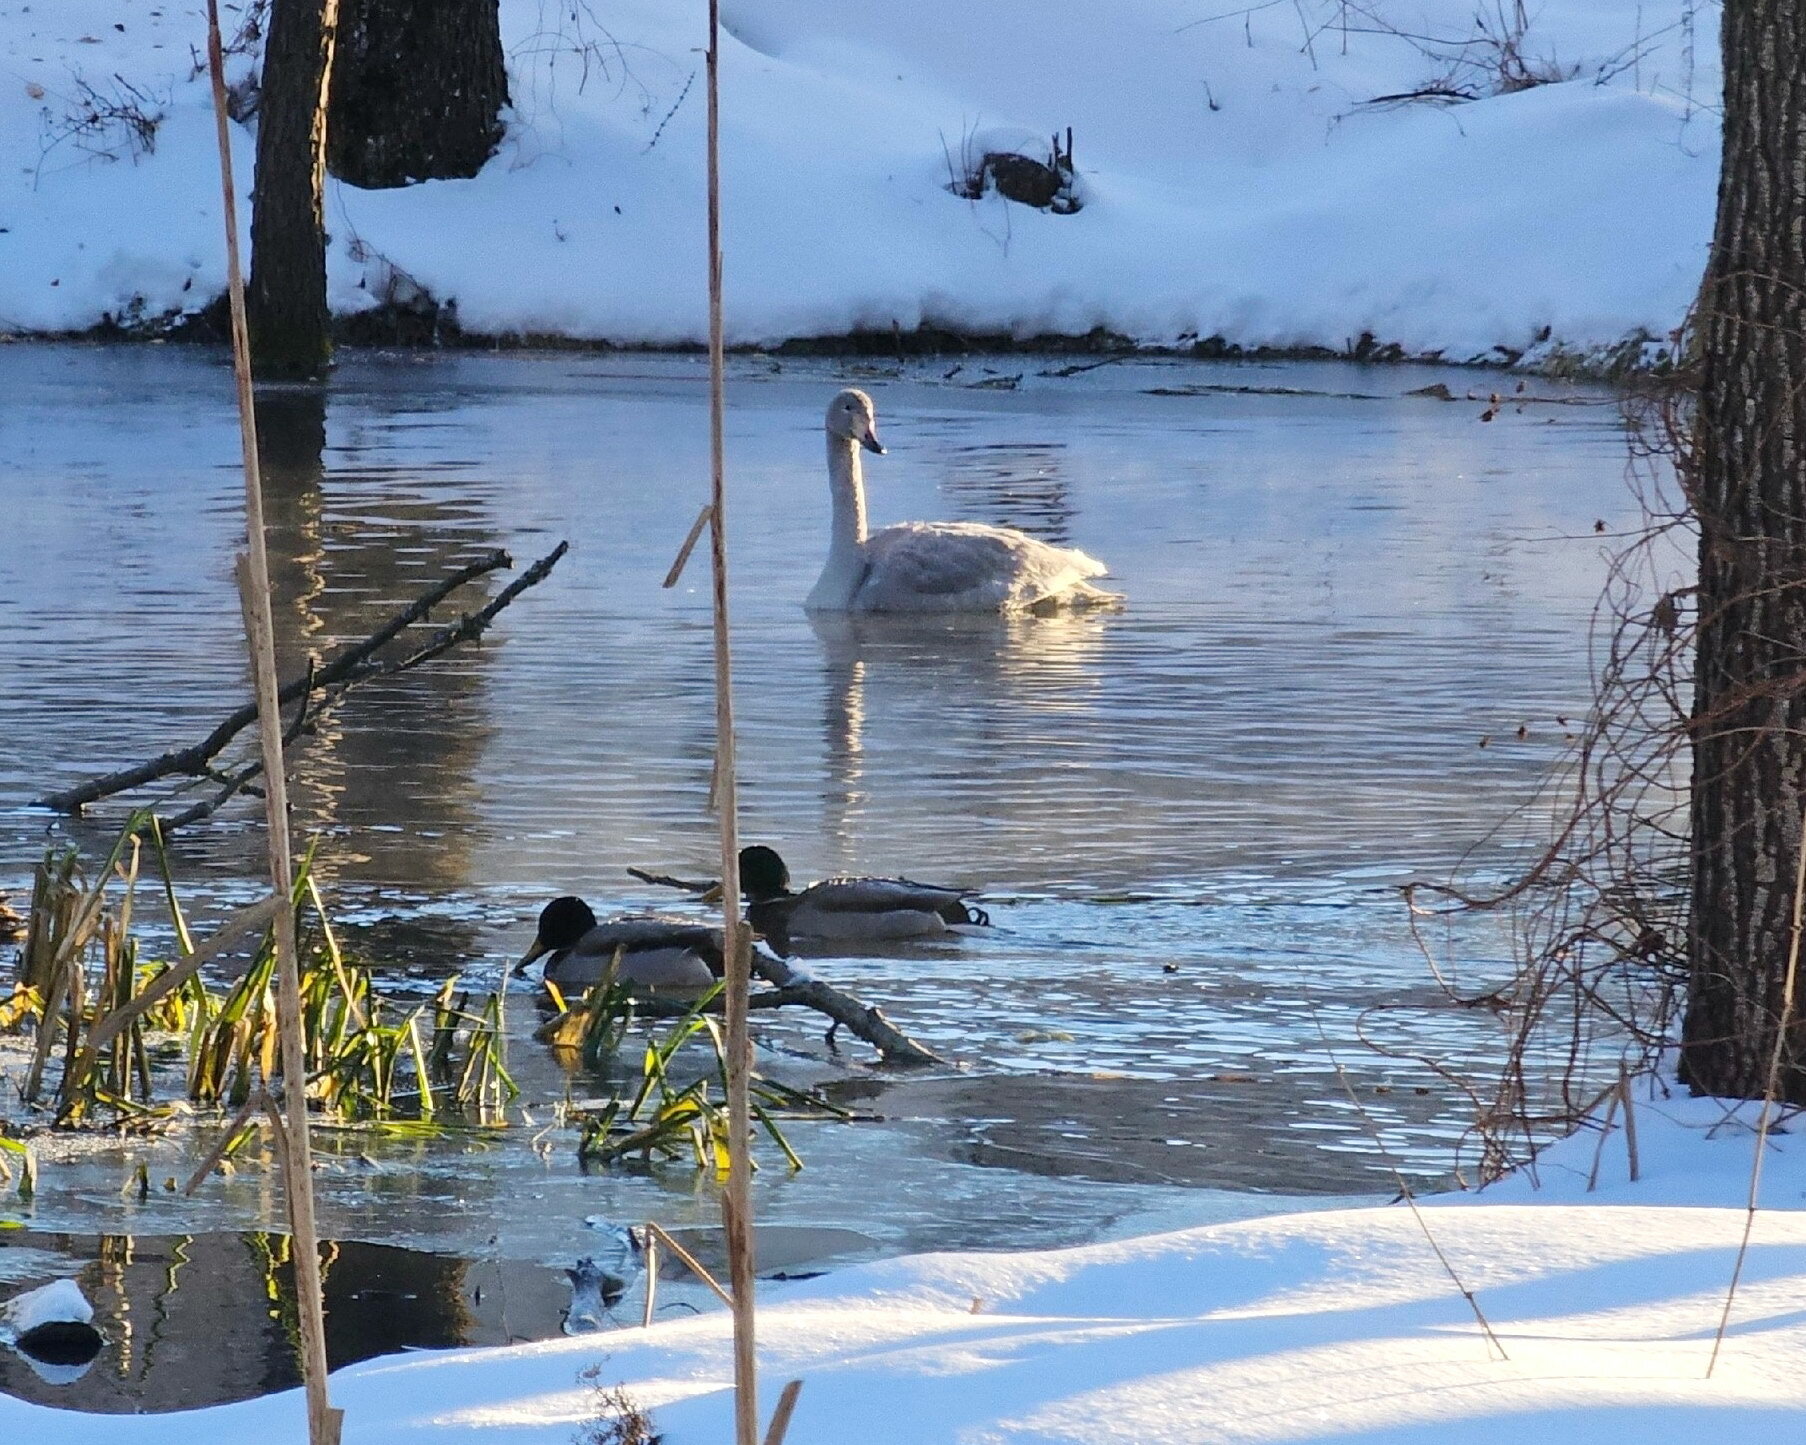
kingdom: Animalia
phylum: Chordata
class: Aves
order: Anseriformes
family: Anatidae
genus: Cygnus
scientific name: Cygnus cygnus
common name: Whooper swan
